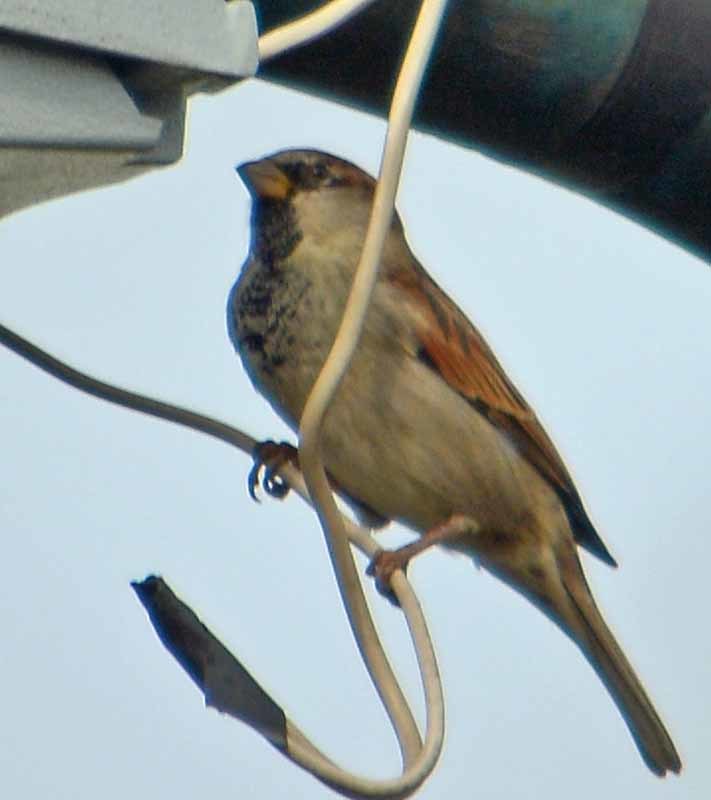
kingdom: Animalia
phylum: Chordata
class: Aves
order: Passeriformes
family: Passeridae
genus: Passer
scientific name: Passer domesticus
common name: House sparrow
